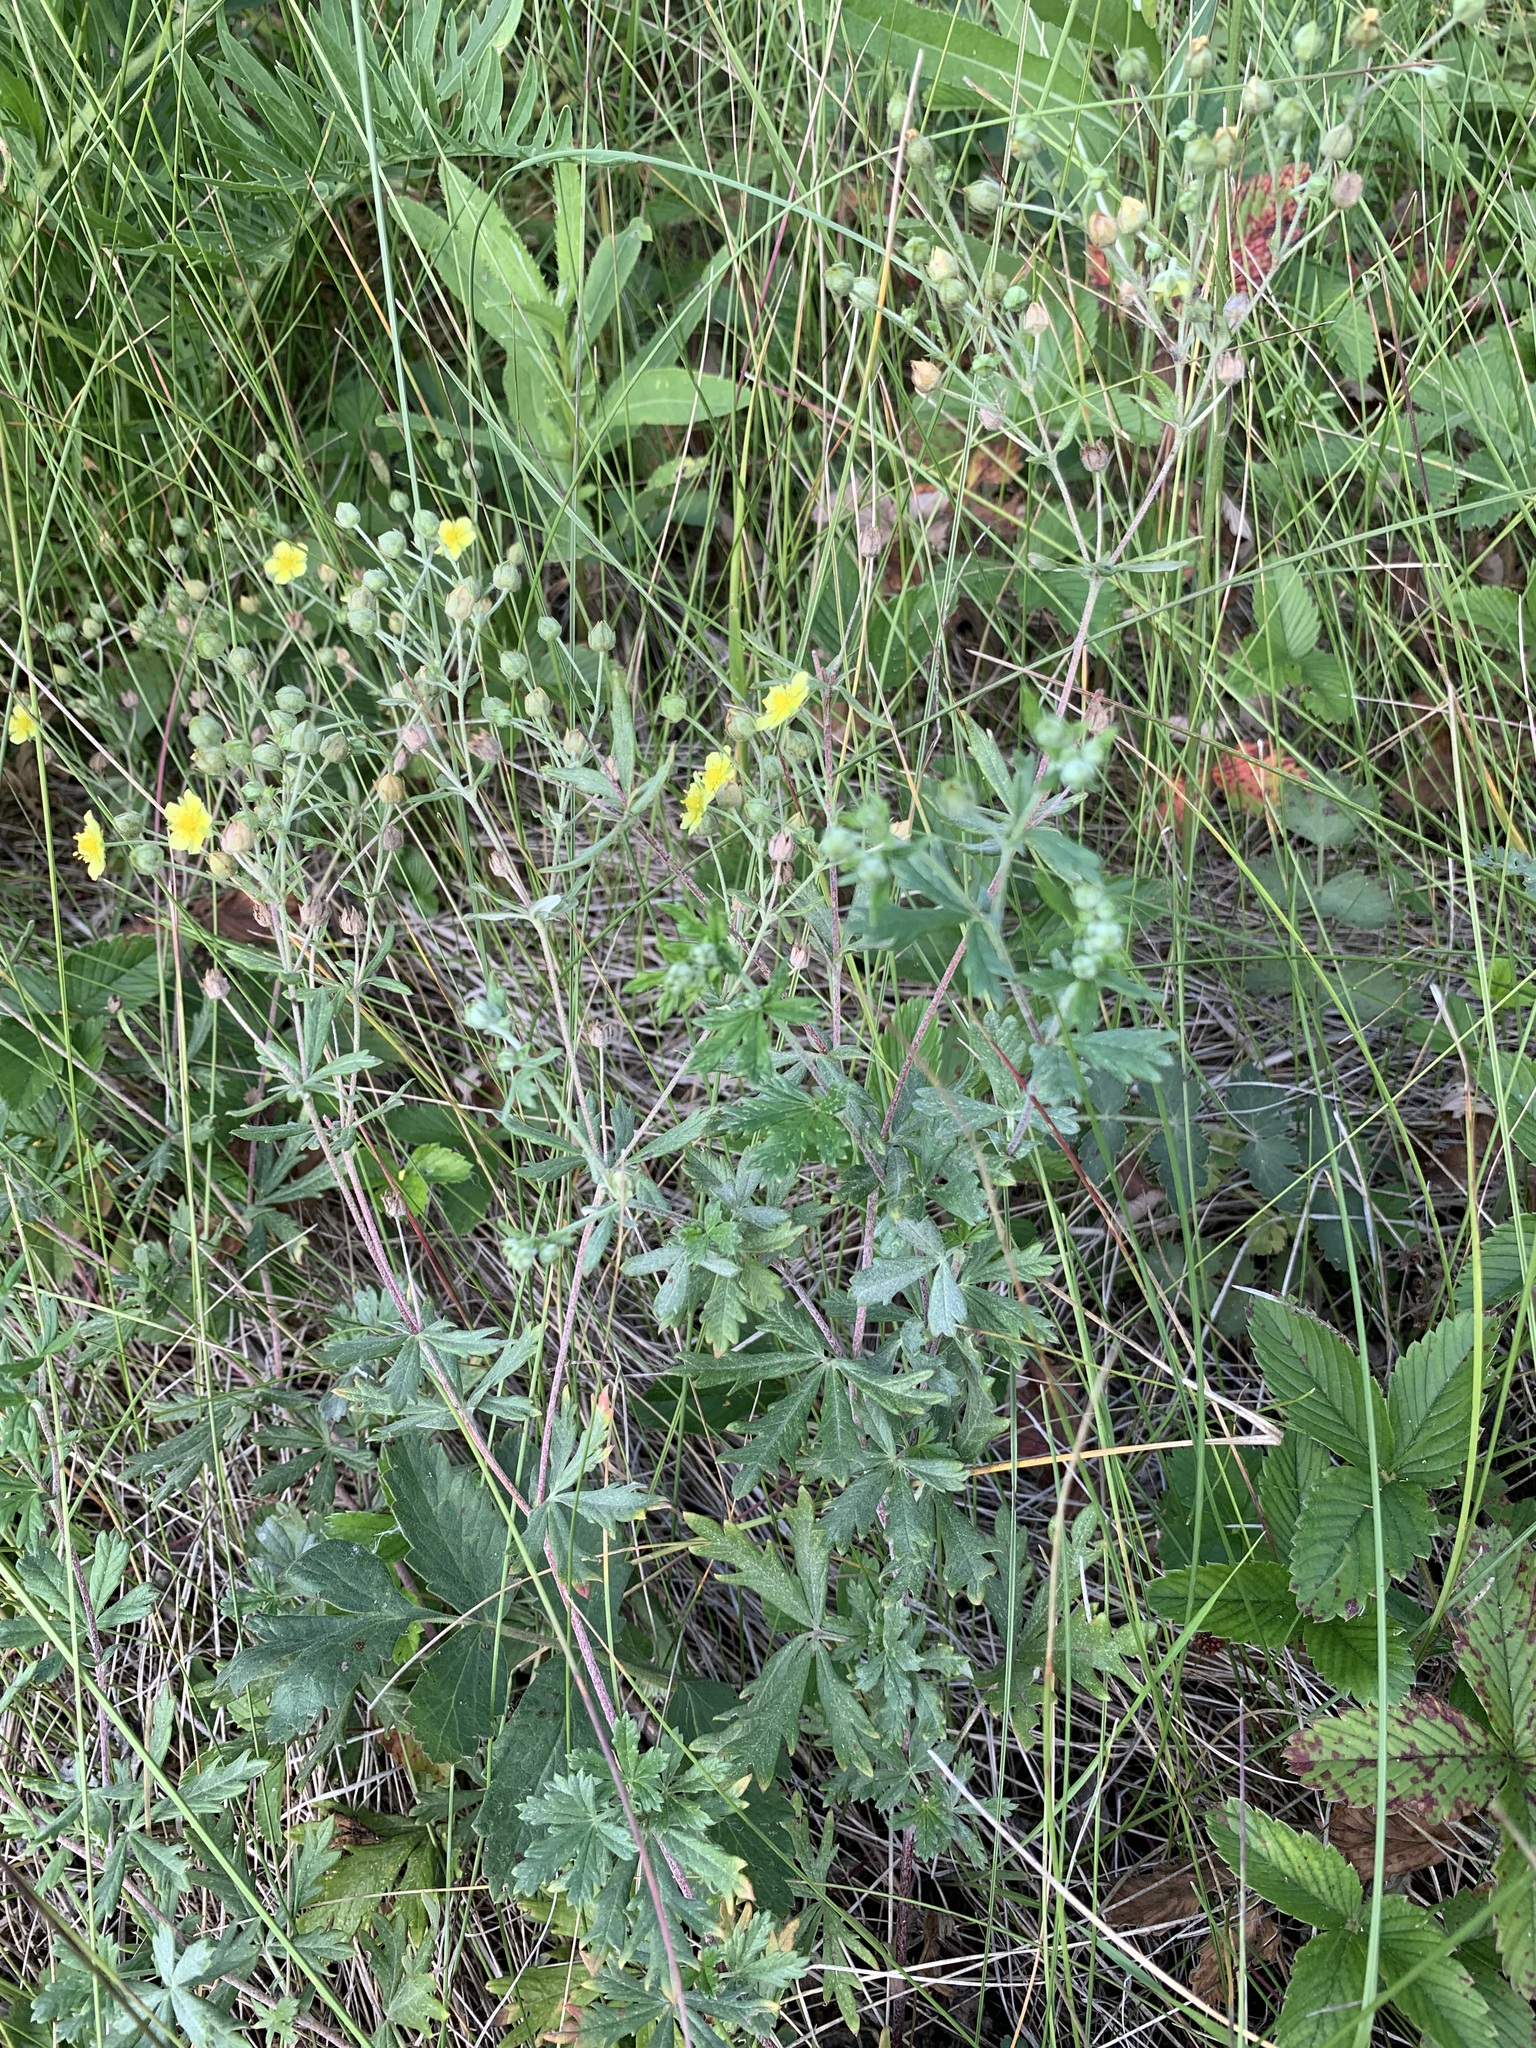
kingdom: Plantae
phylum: Tracheophyta
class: Magnoliopsida
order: Rosales
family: Rosaceae
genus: Potentilla
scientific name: Potentilla argentea
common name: Hoary cinquefoil
